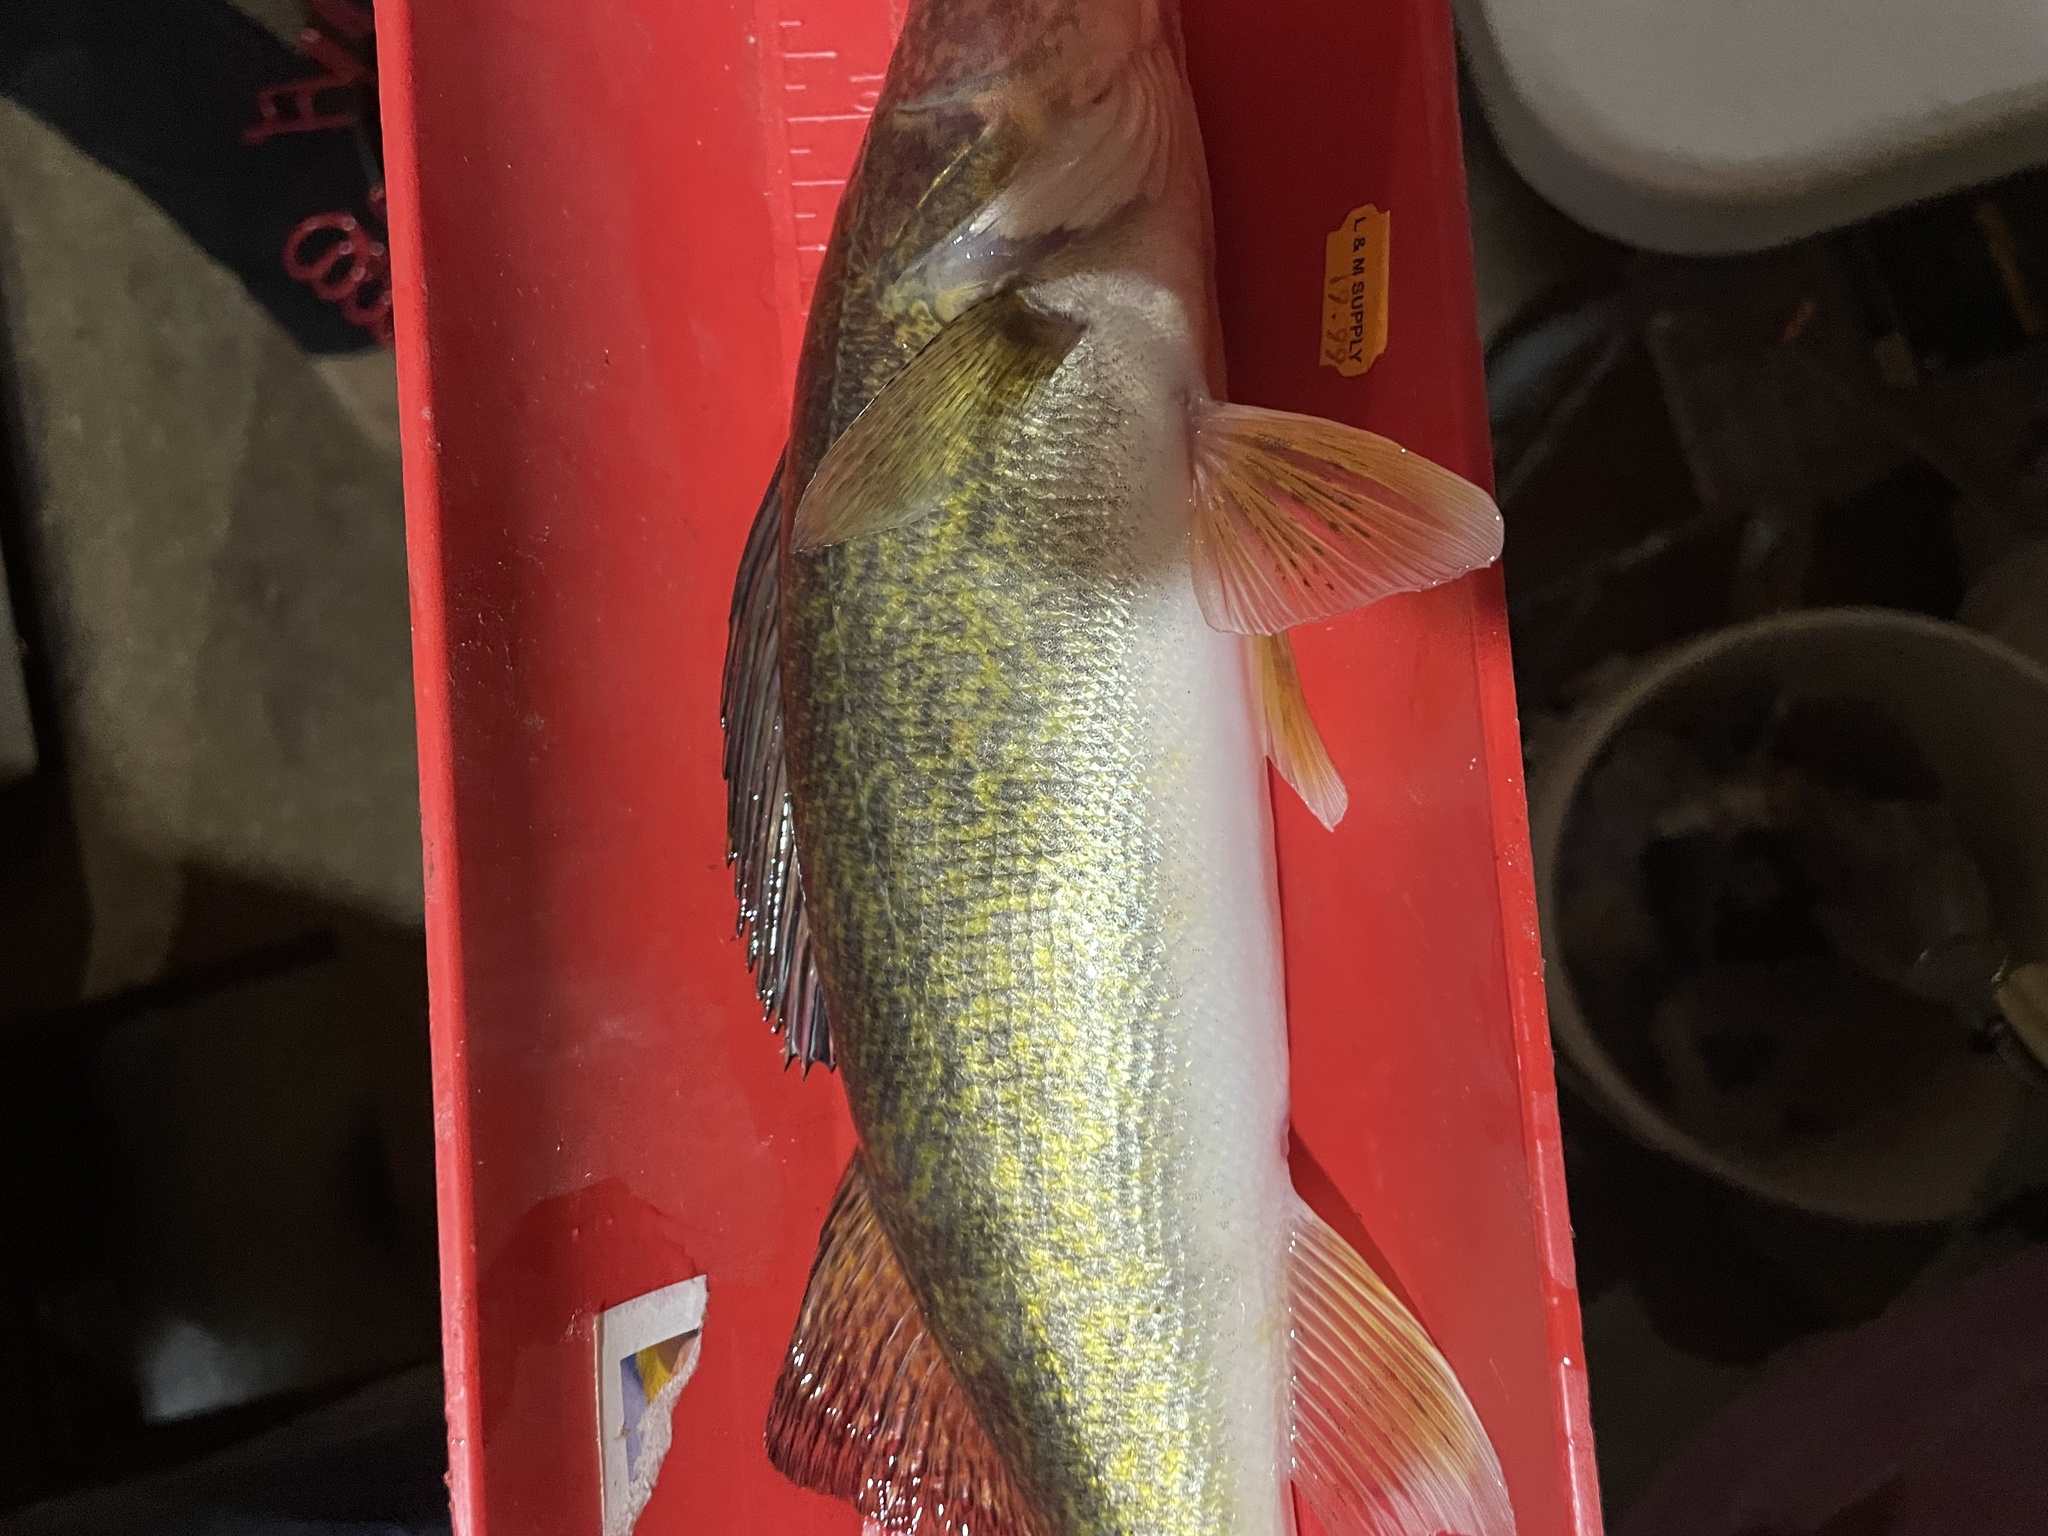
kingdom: Animalia
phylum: Chordata
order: Perciformes
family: Percidae
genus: Sander
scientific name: Sander vitreus
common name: Walleye
